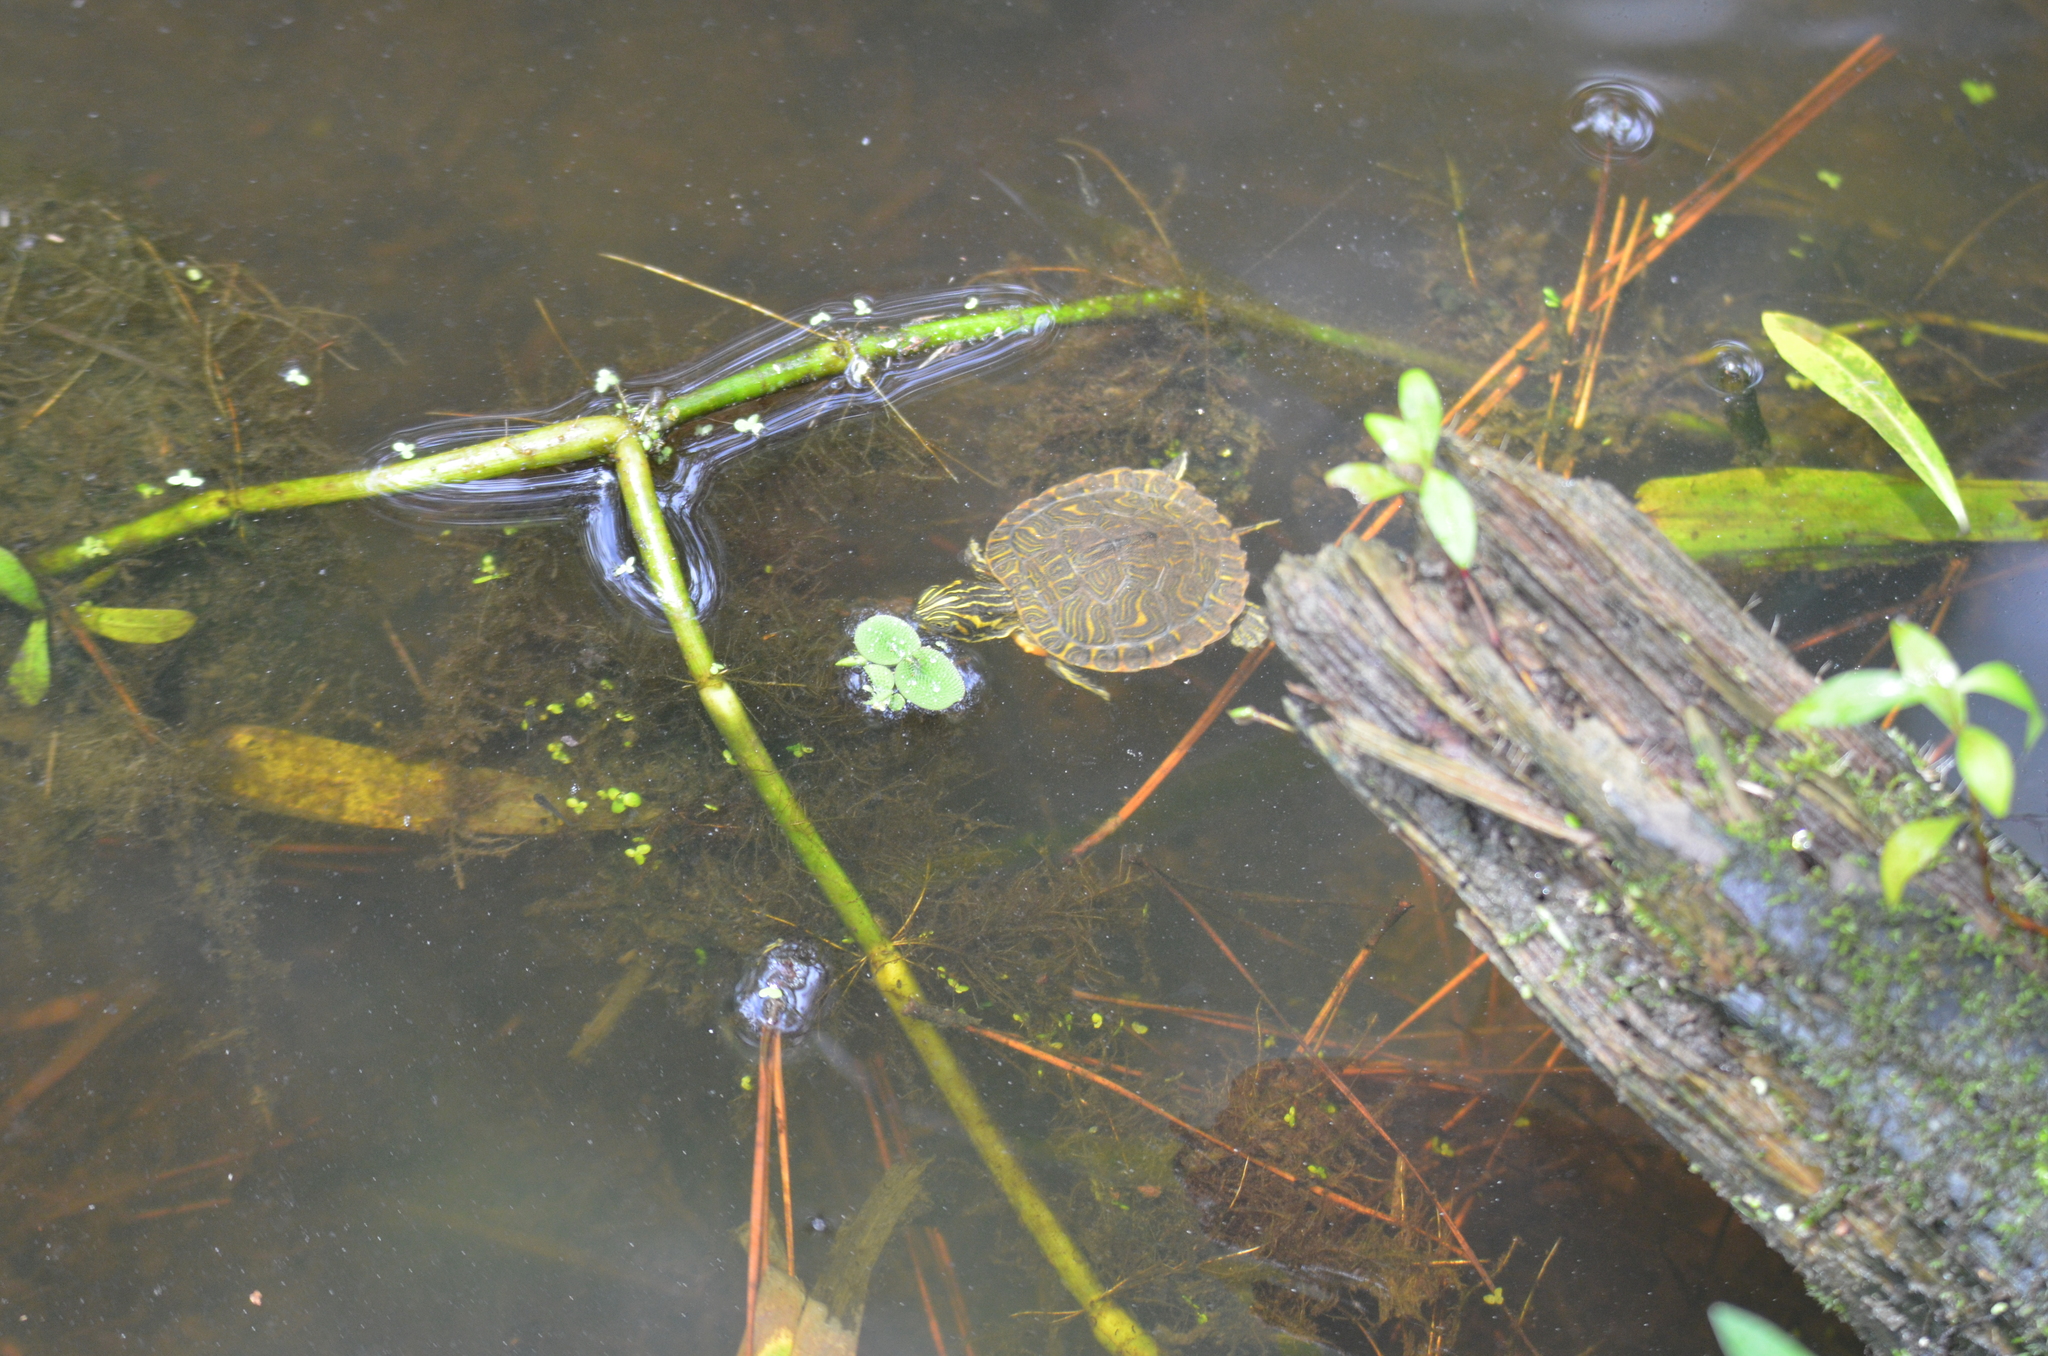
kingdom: Animalia
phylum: Chordata
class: Testudines
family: Emydidae
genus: Pseudemys
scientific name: Pseudemys concinna
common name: Eastern river cooter
